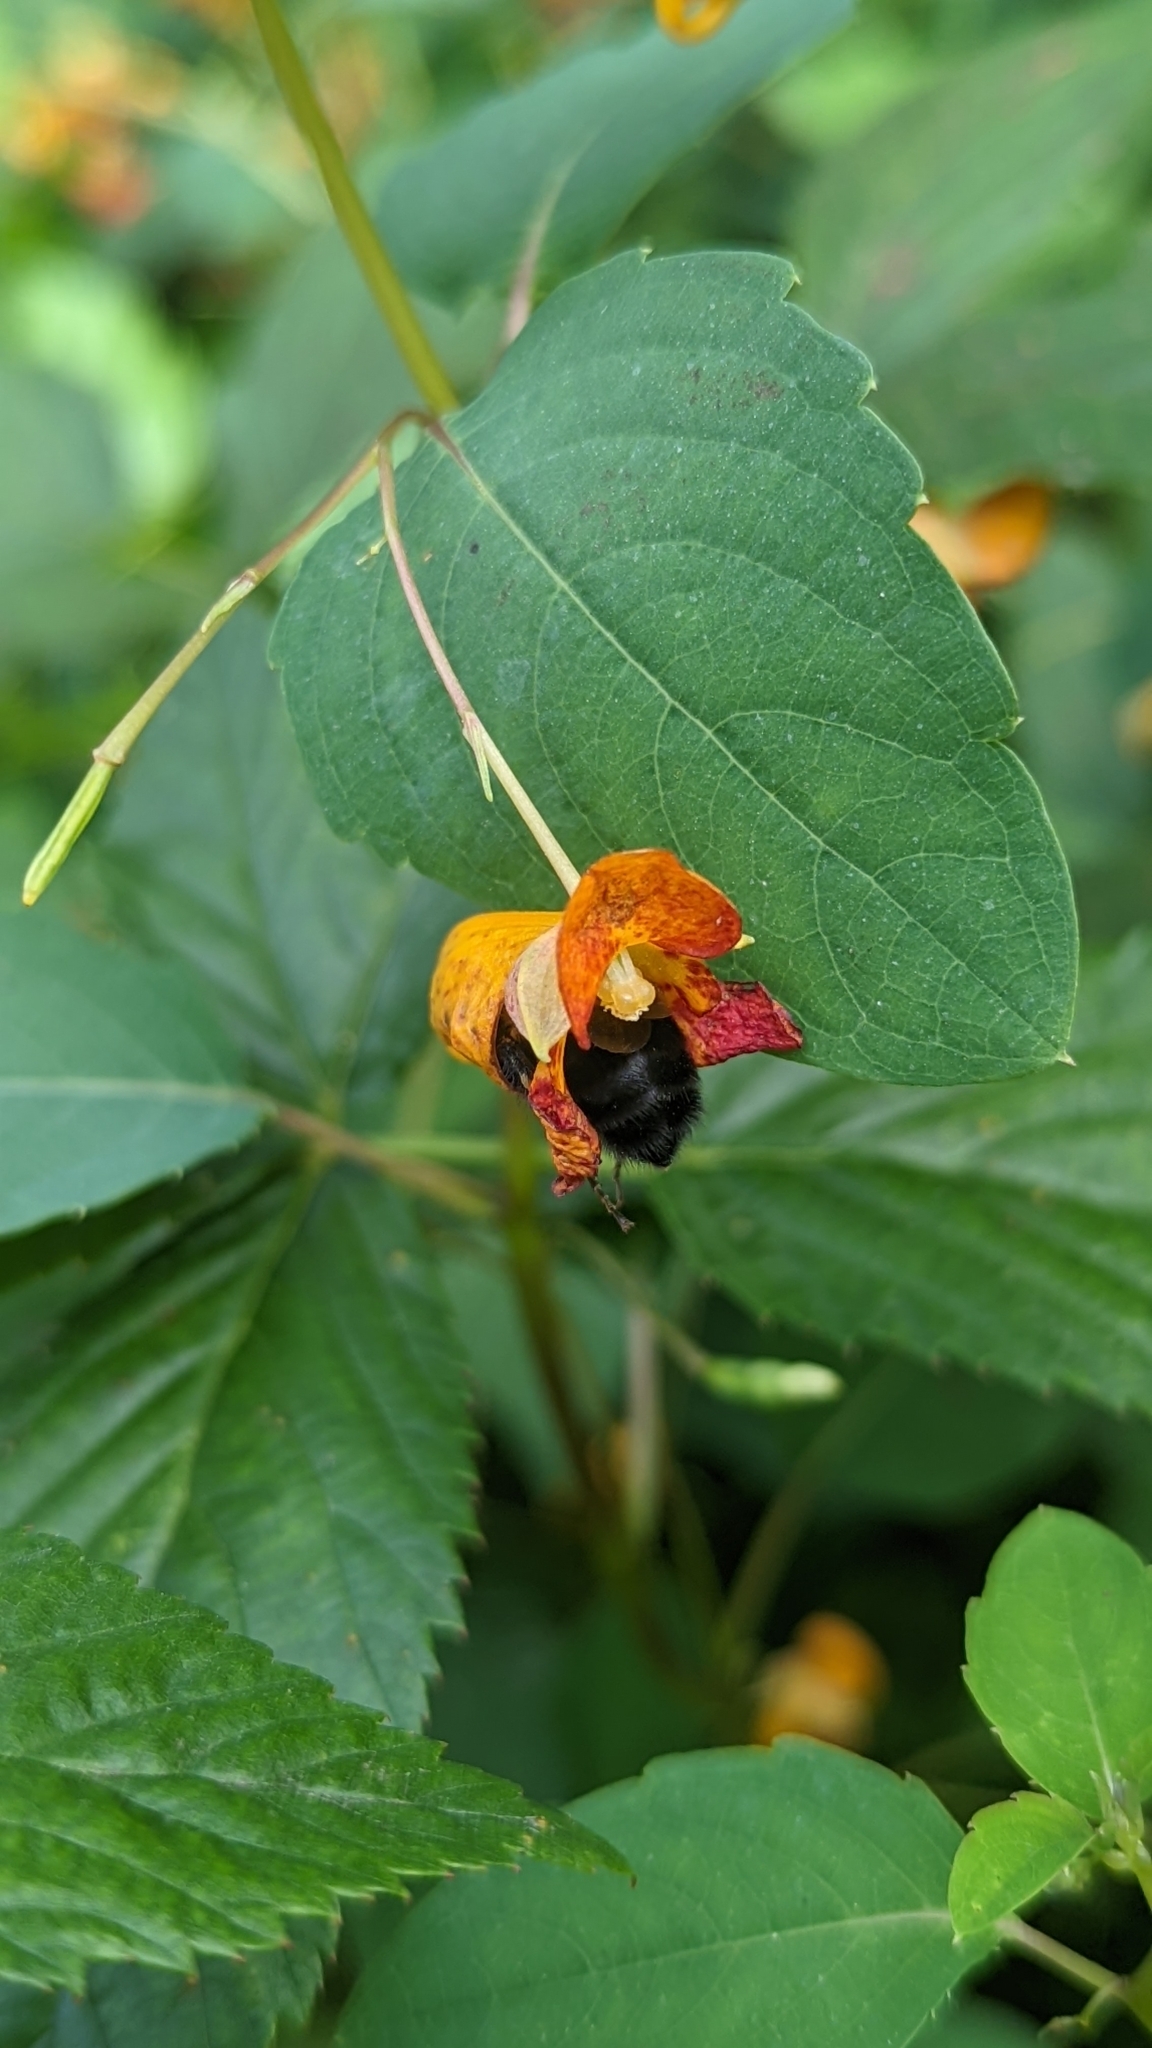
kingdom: Plantae
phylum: Tracheophyta
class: Magnoliopsida
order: Ericales
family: Balsaminaceae
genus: Impatiens
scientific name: Impatiens capensis
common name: Orange balsam
